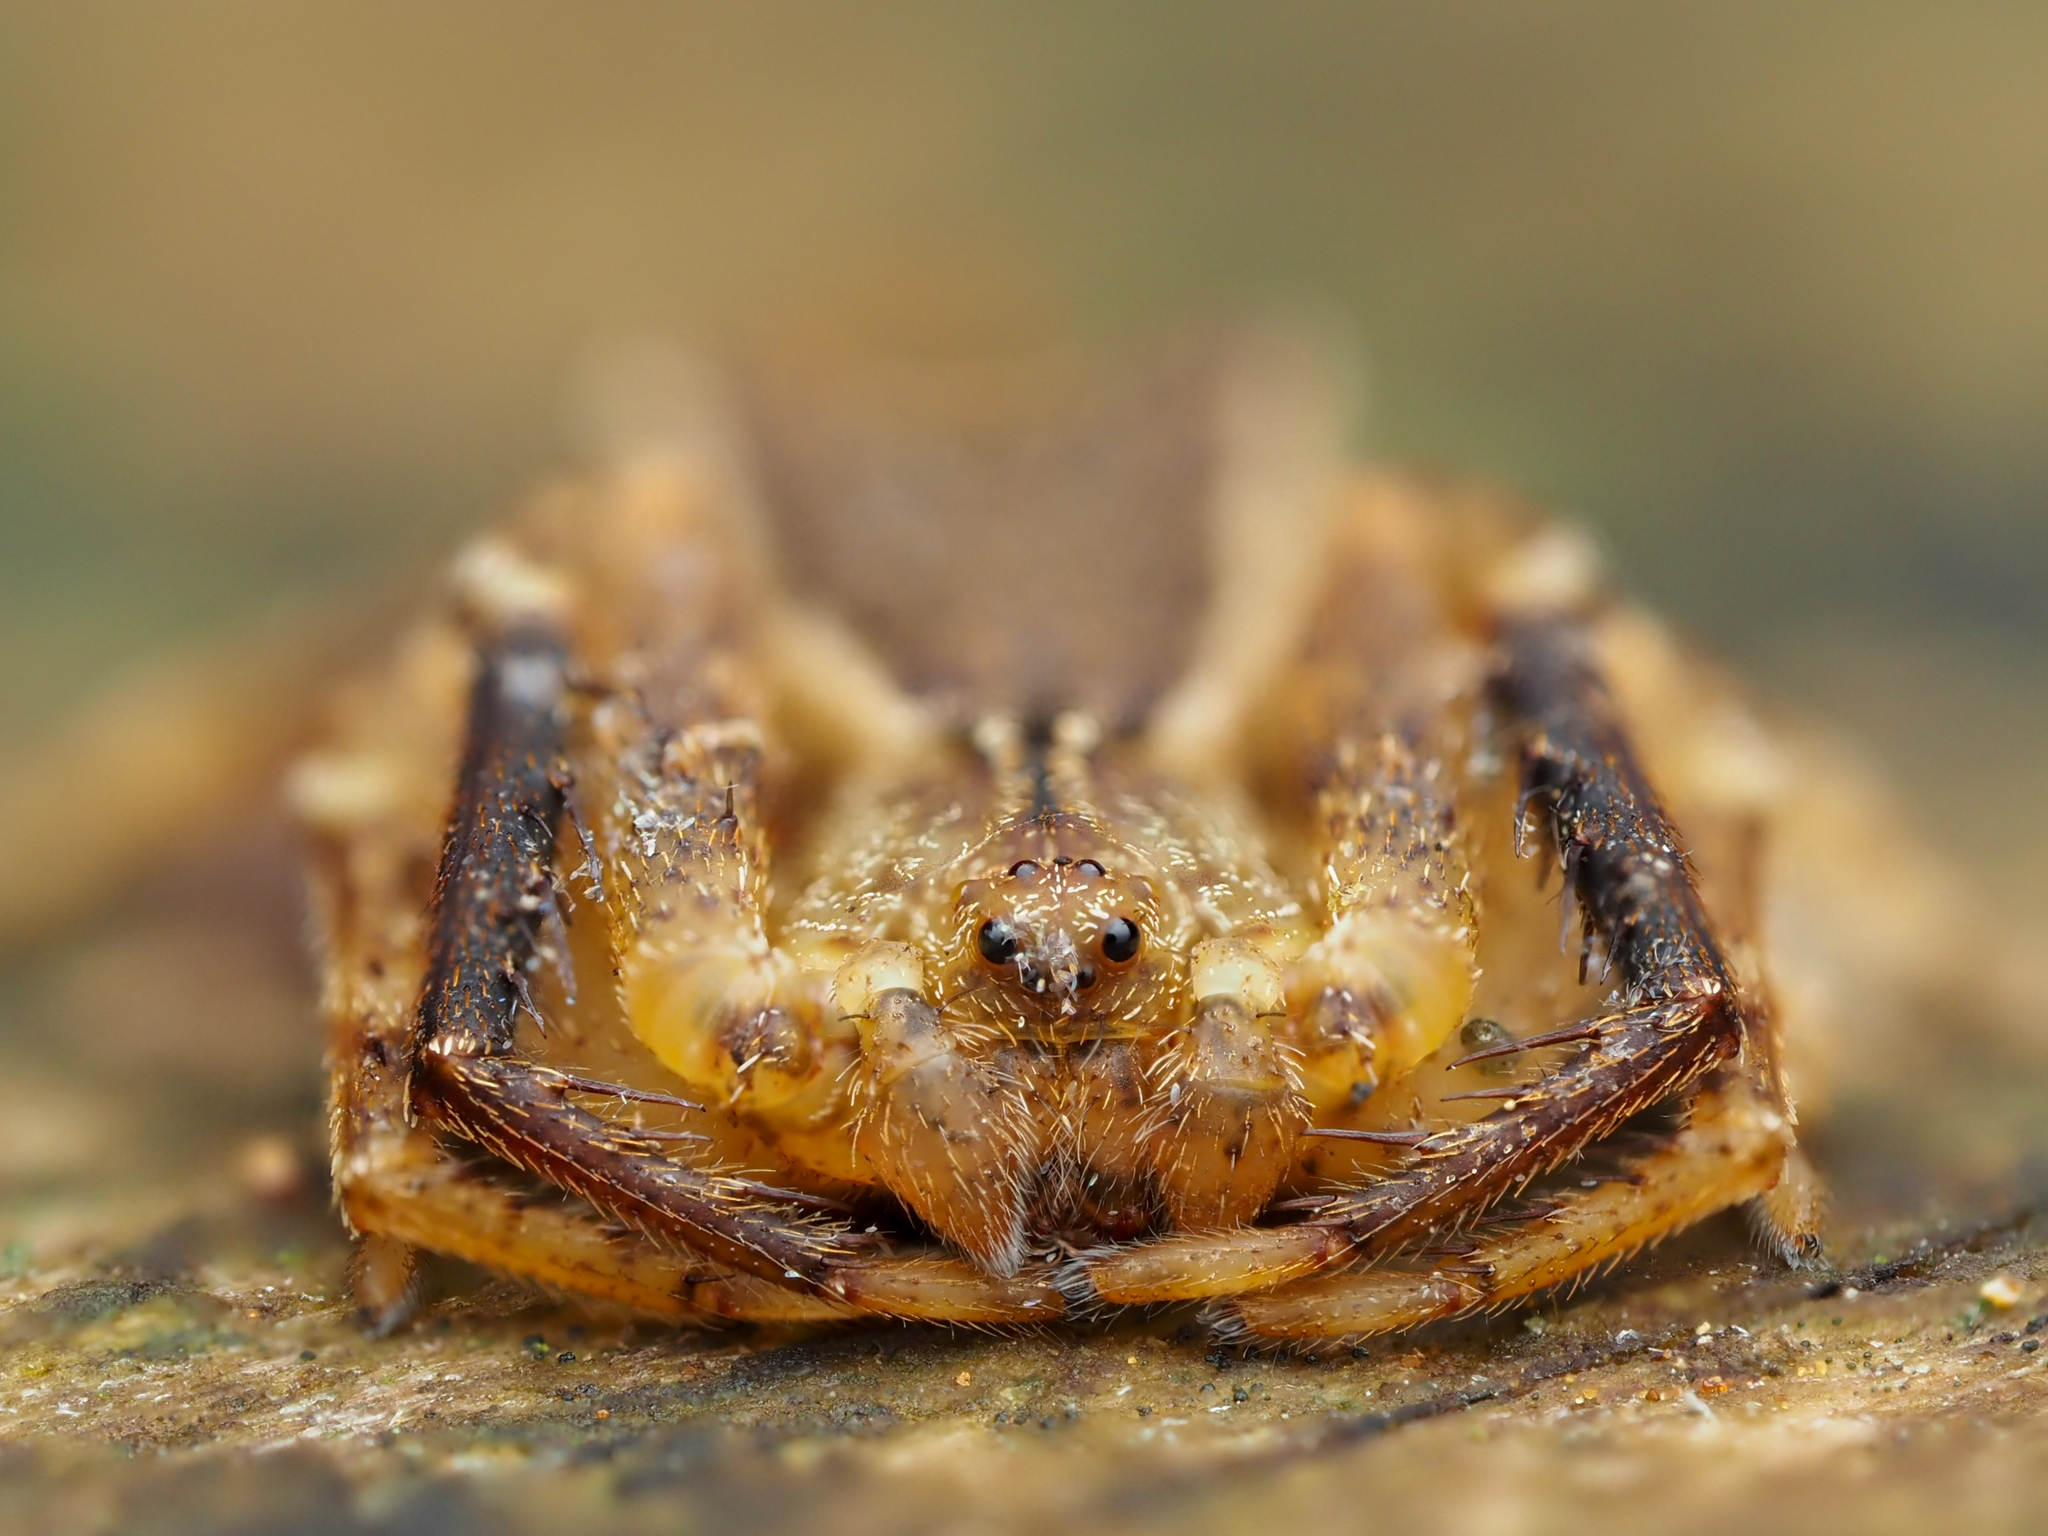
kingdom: Animalia
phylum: Arthropoda
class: Arachnida
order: Araneae
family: Thomisidae
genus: Sidymella
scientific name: Sidymella angularis
